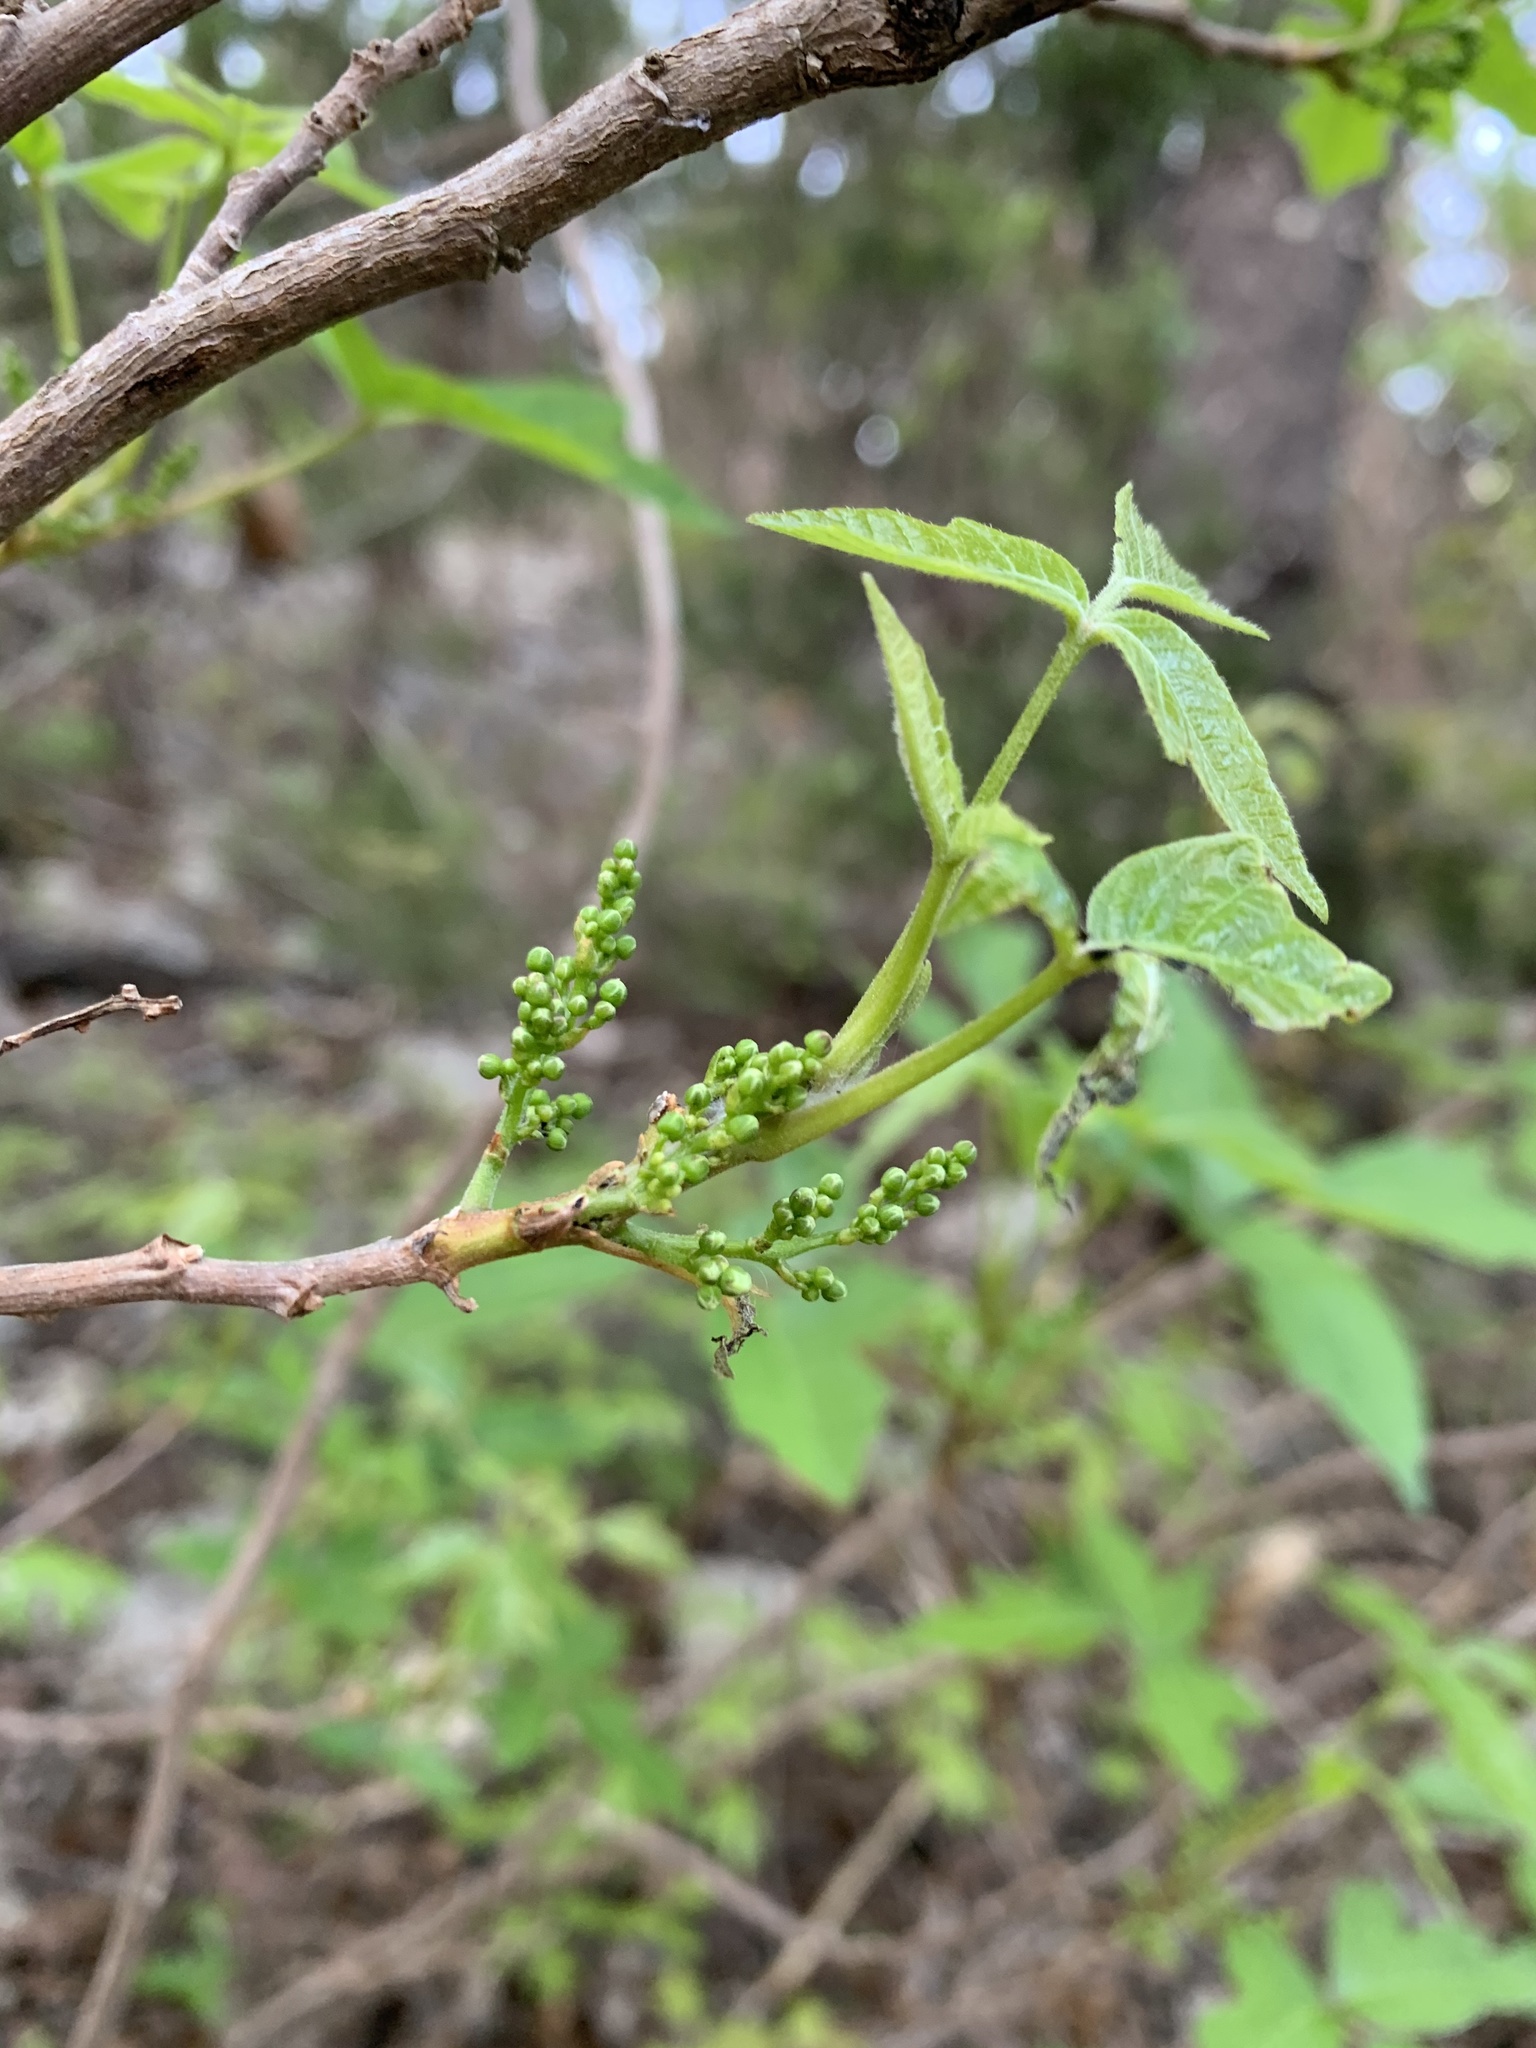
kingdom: Plantae
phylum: Tracheophyta
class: Magnoliopsida
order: Sapindales
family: Anacardiaceae
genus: Toxicodendron
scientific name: Toxicodendron radicans
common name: Poison ivy
